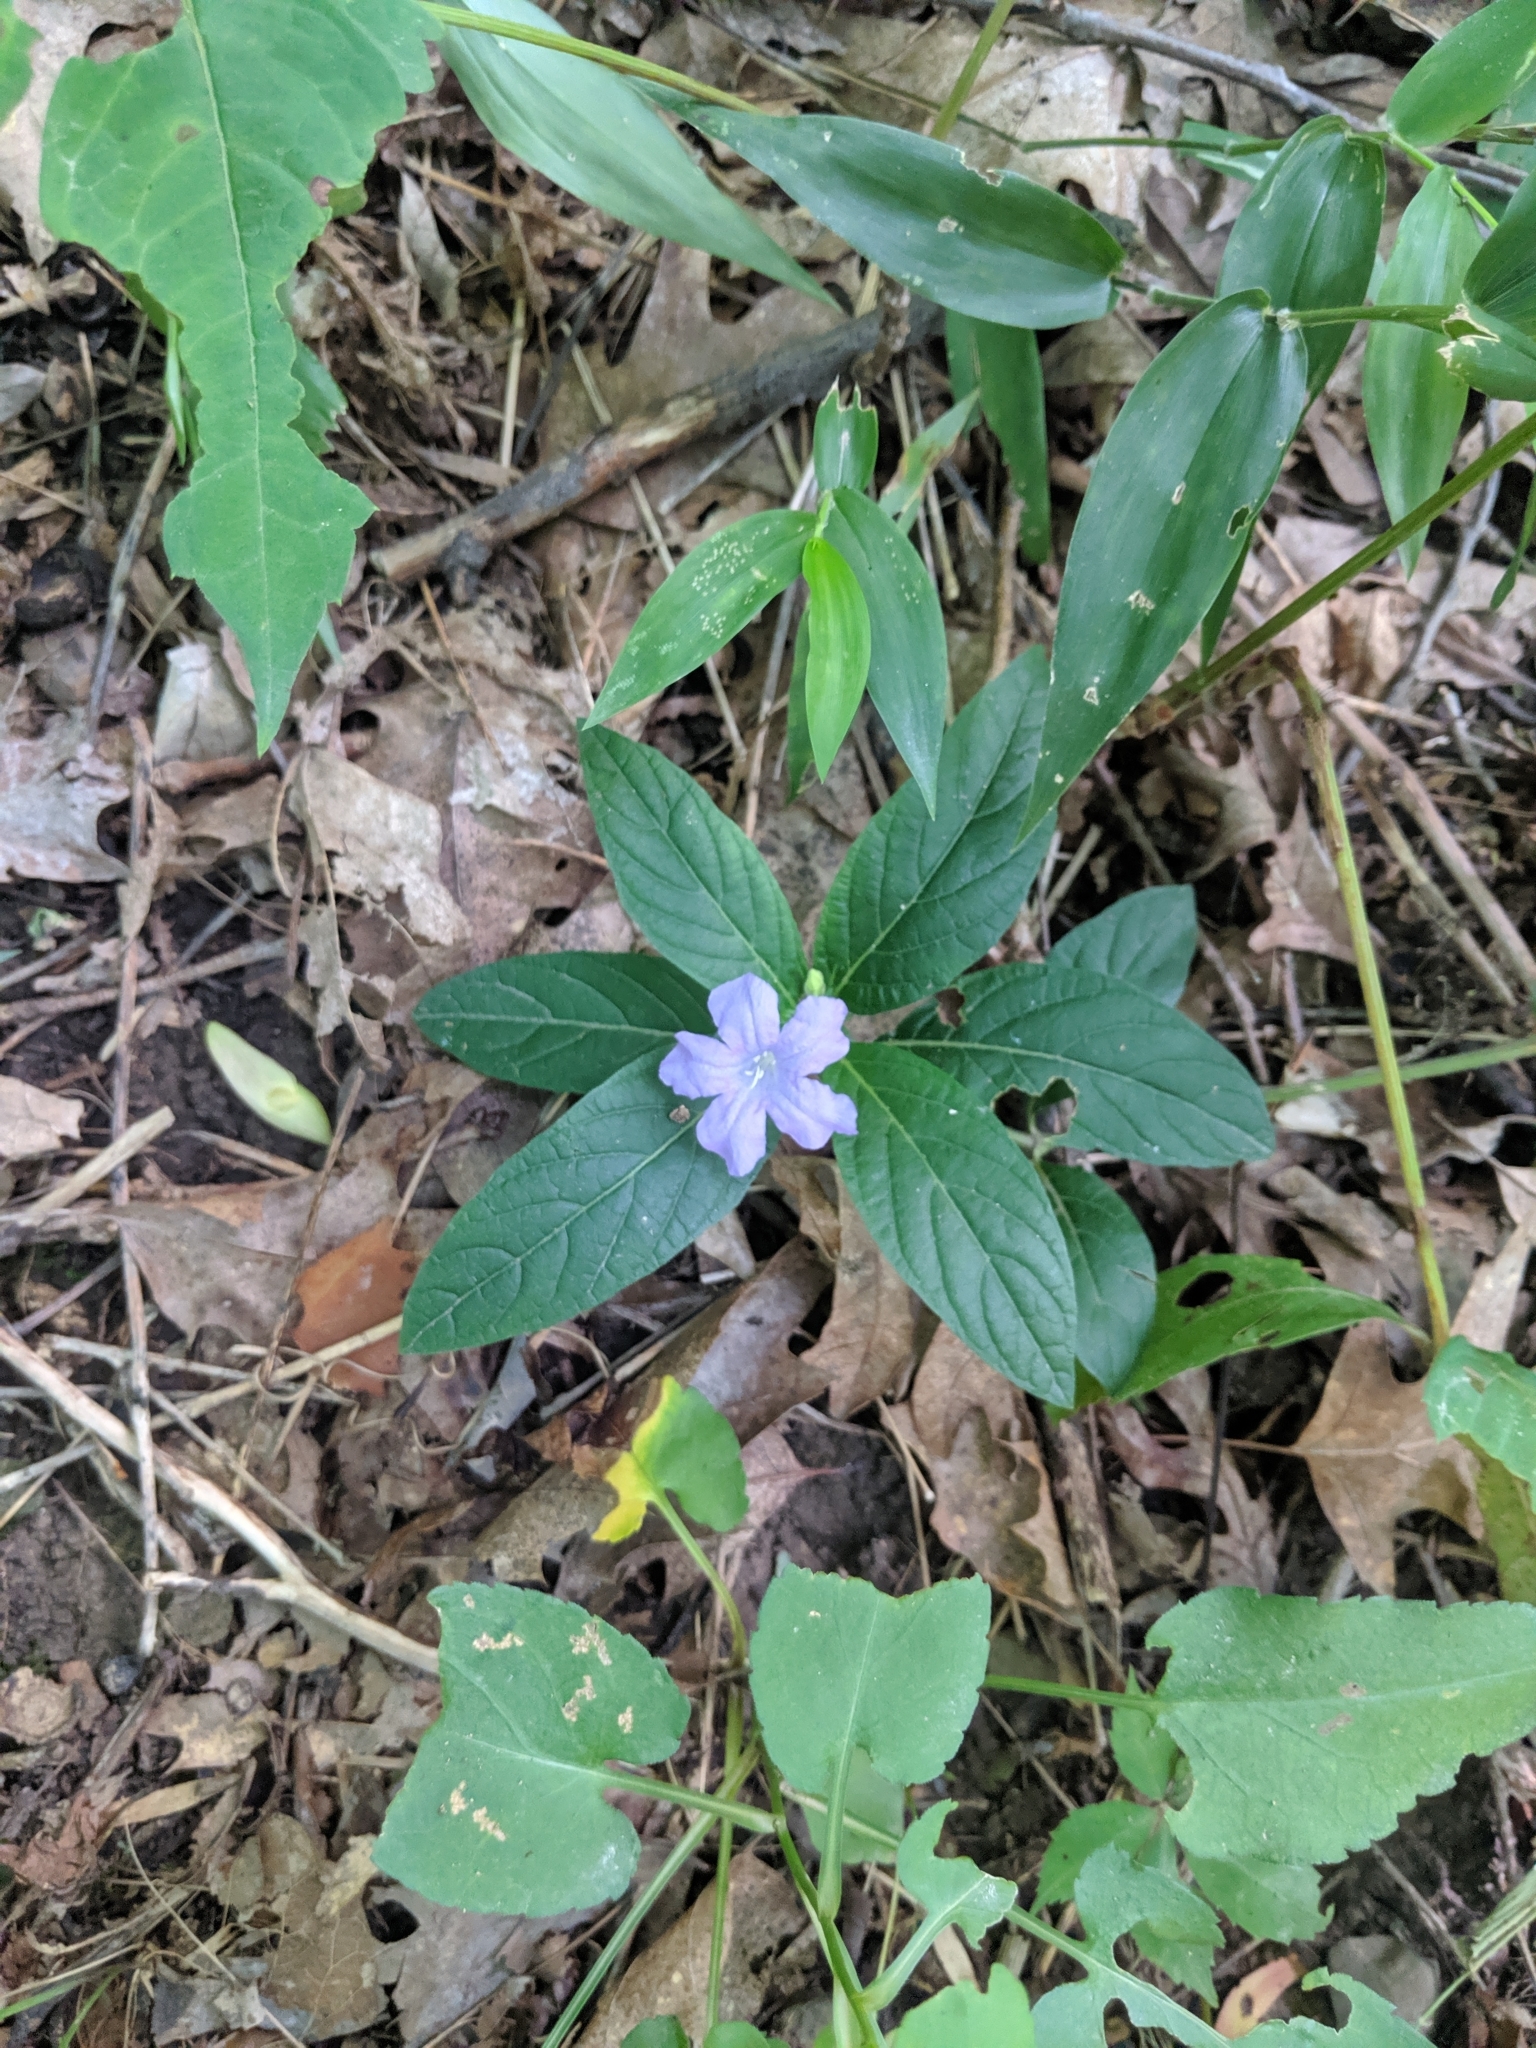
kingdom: Plantae
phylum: Tracheophyta
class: Magnoliopsida
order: Lamiales
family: Acanthaceae
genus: Ruellia
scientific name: Ruellia caroliniensis
